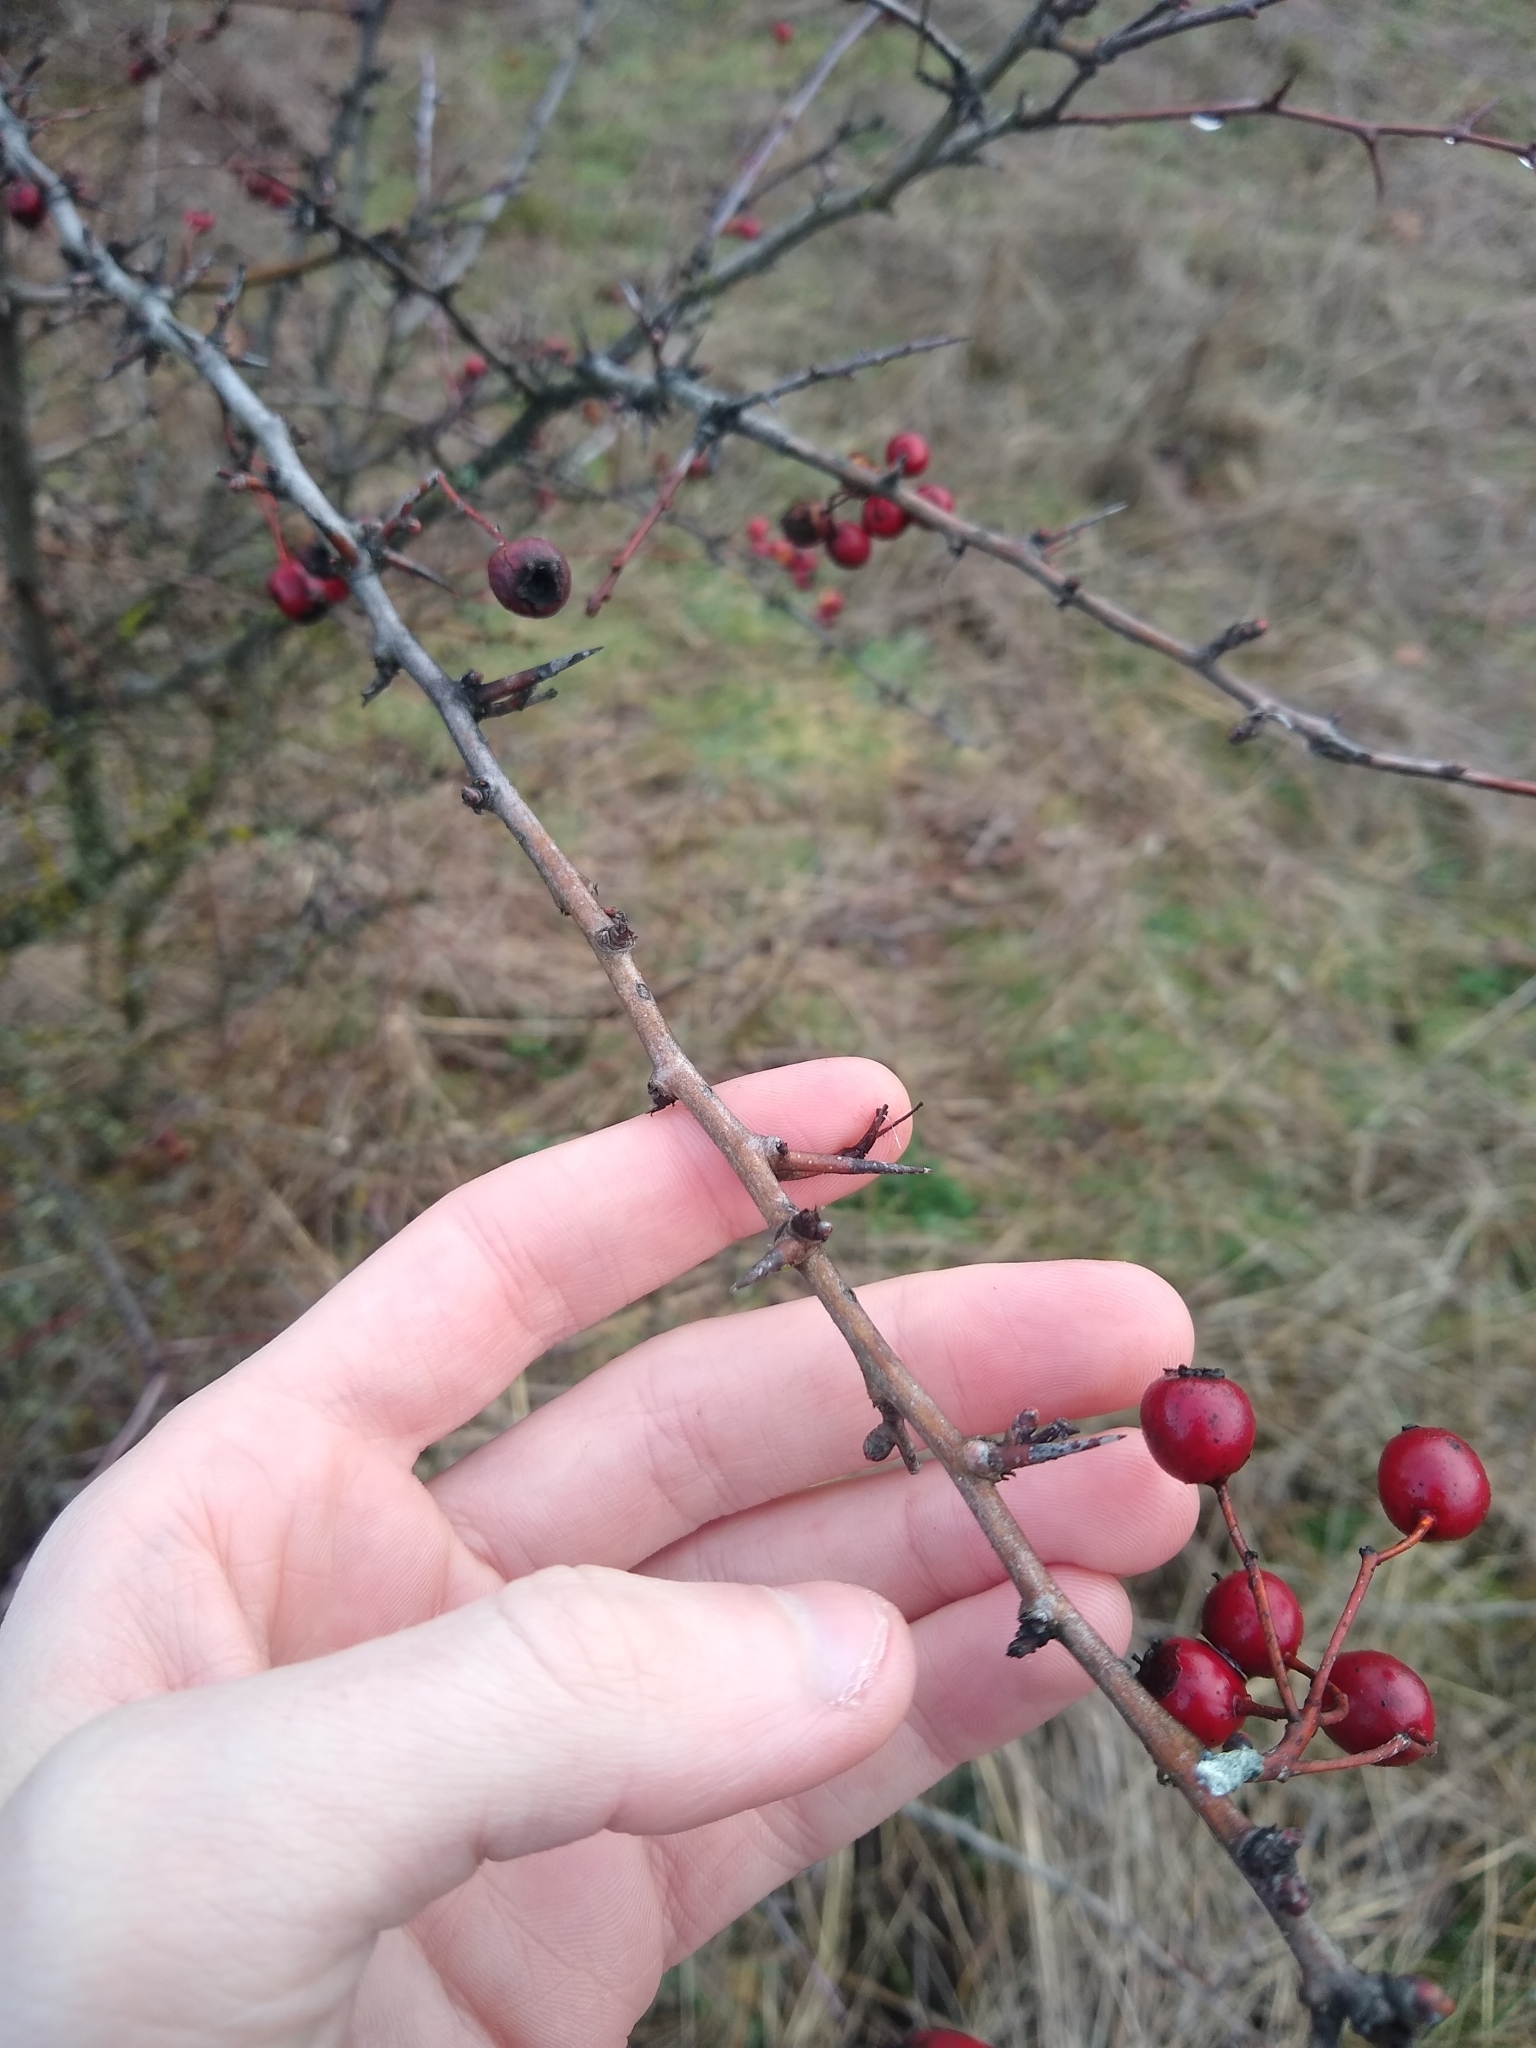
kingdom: Plantae
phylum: Tracheophyta
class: Magnoliopsida
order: Rosales
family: Rosaceae
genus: Crataegus
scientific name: Crataegus monogyna
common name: Hawthorn
